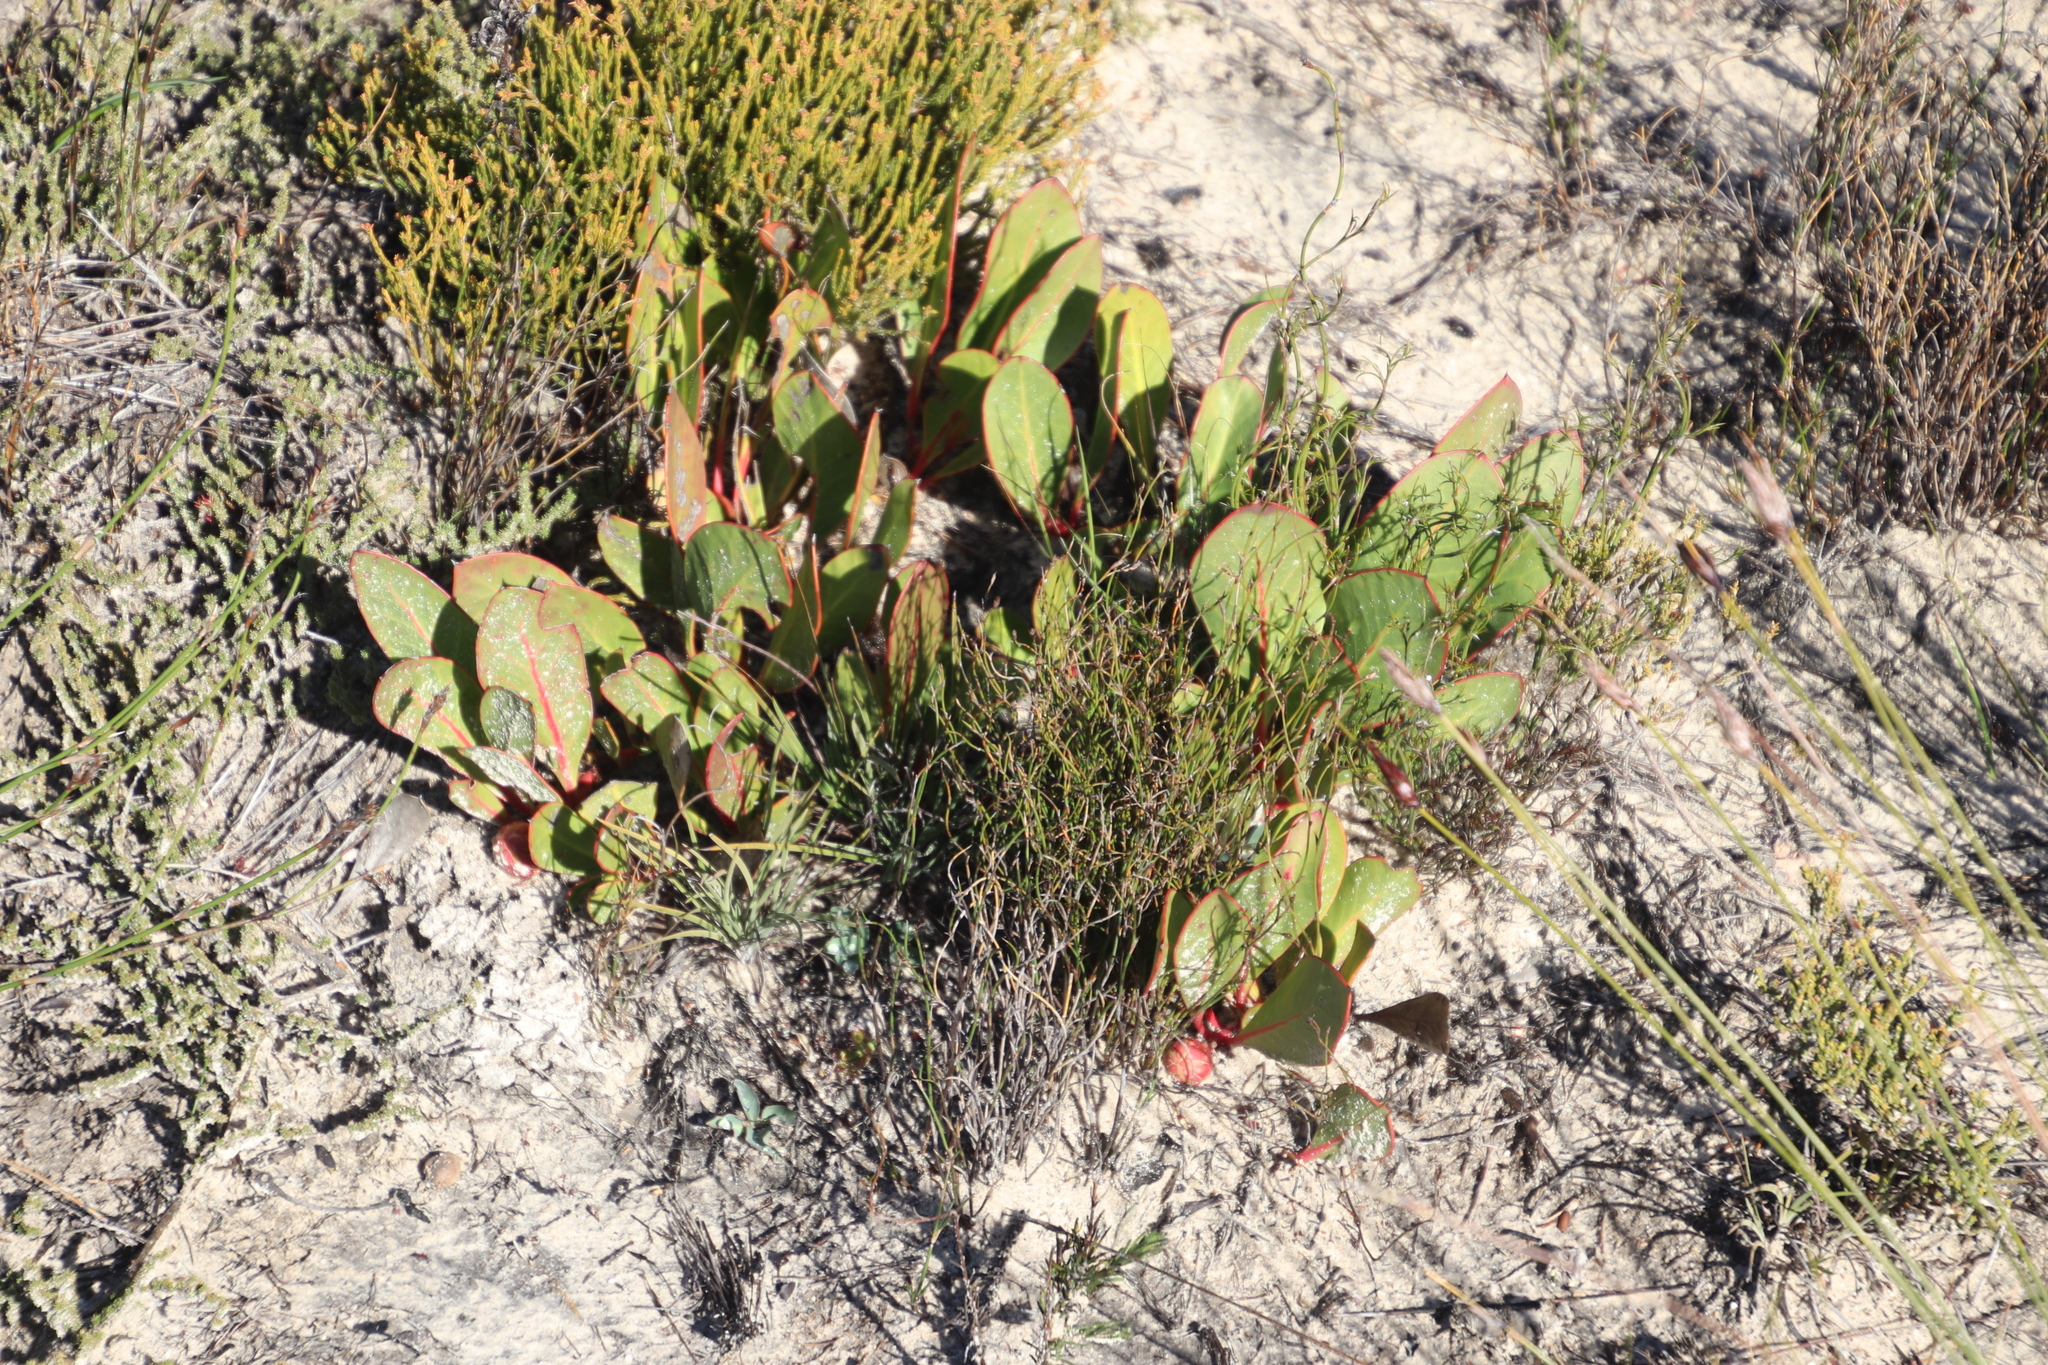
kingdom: Plantae
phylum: Tracheophyta
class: Magnoliopsida
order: Proteales
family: Proteaceae
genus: Protea
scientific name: Protea acaulos
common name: Common ground sugarbush
